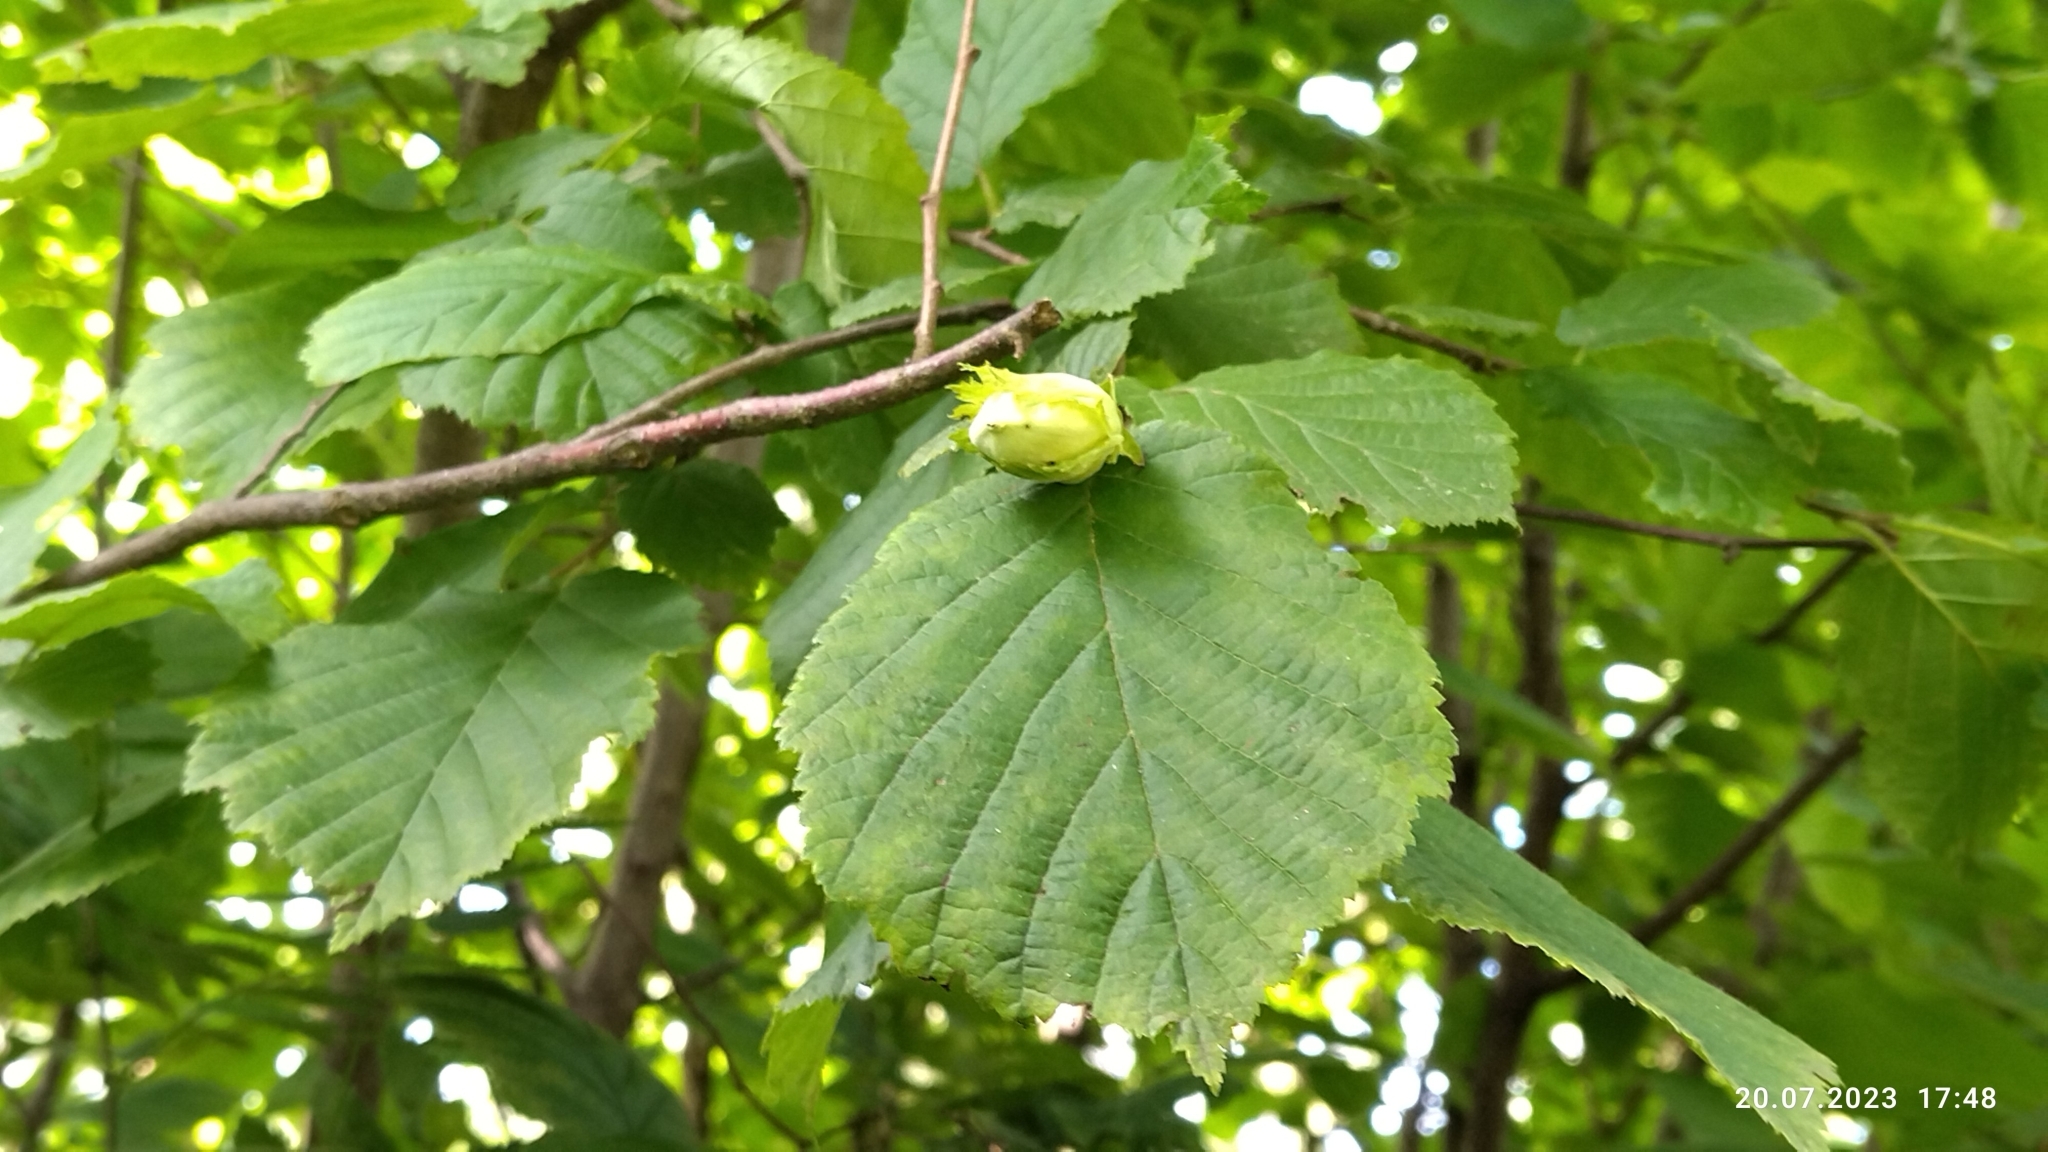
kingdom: Plantae
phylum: Tracheophyta
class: Magnoliopsida
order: Fagales
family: Betulaceae
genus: Corylus
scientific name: Corylus avellana
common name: European hazel
